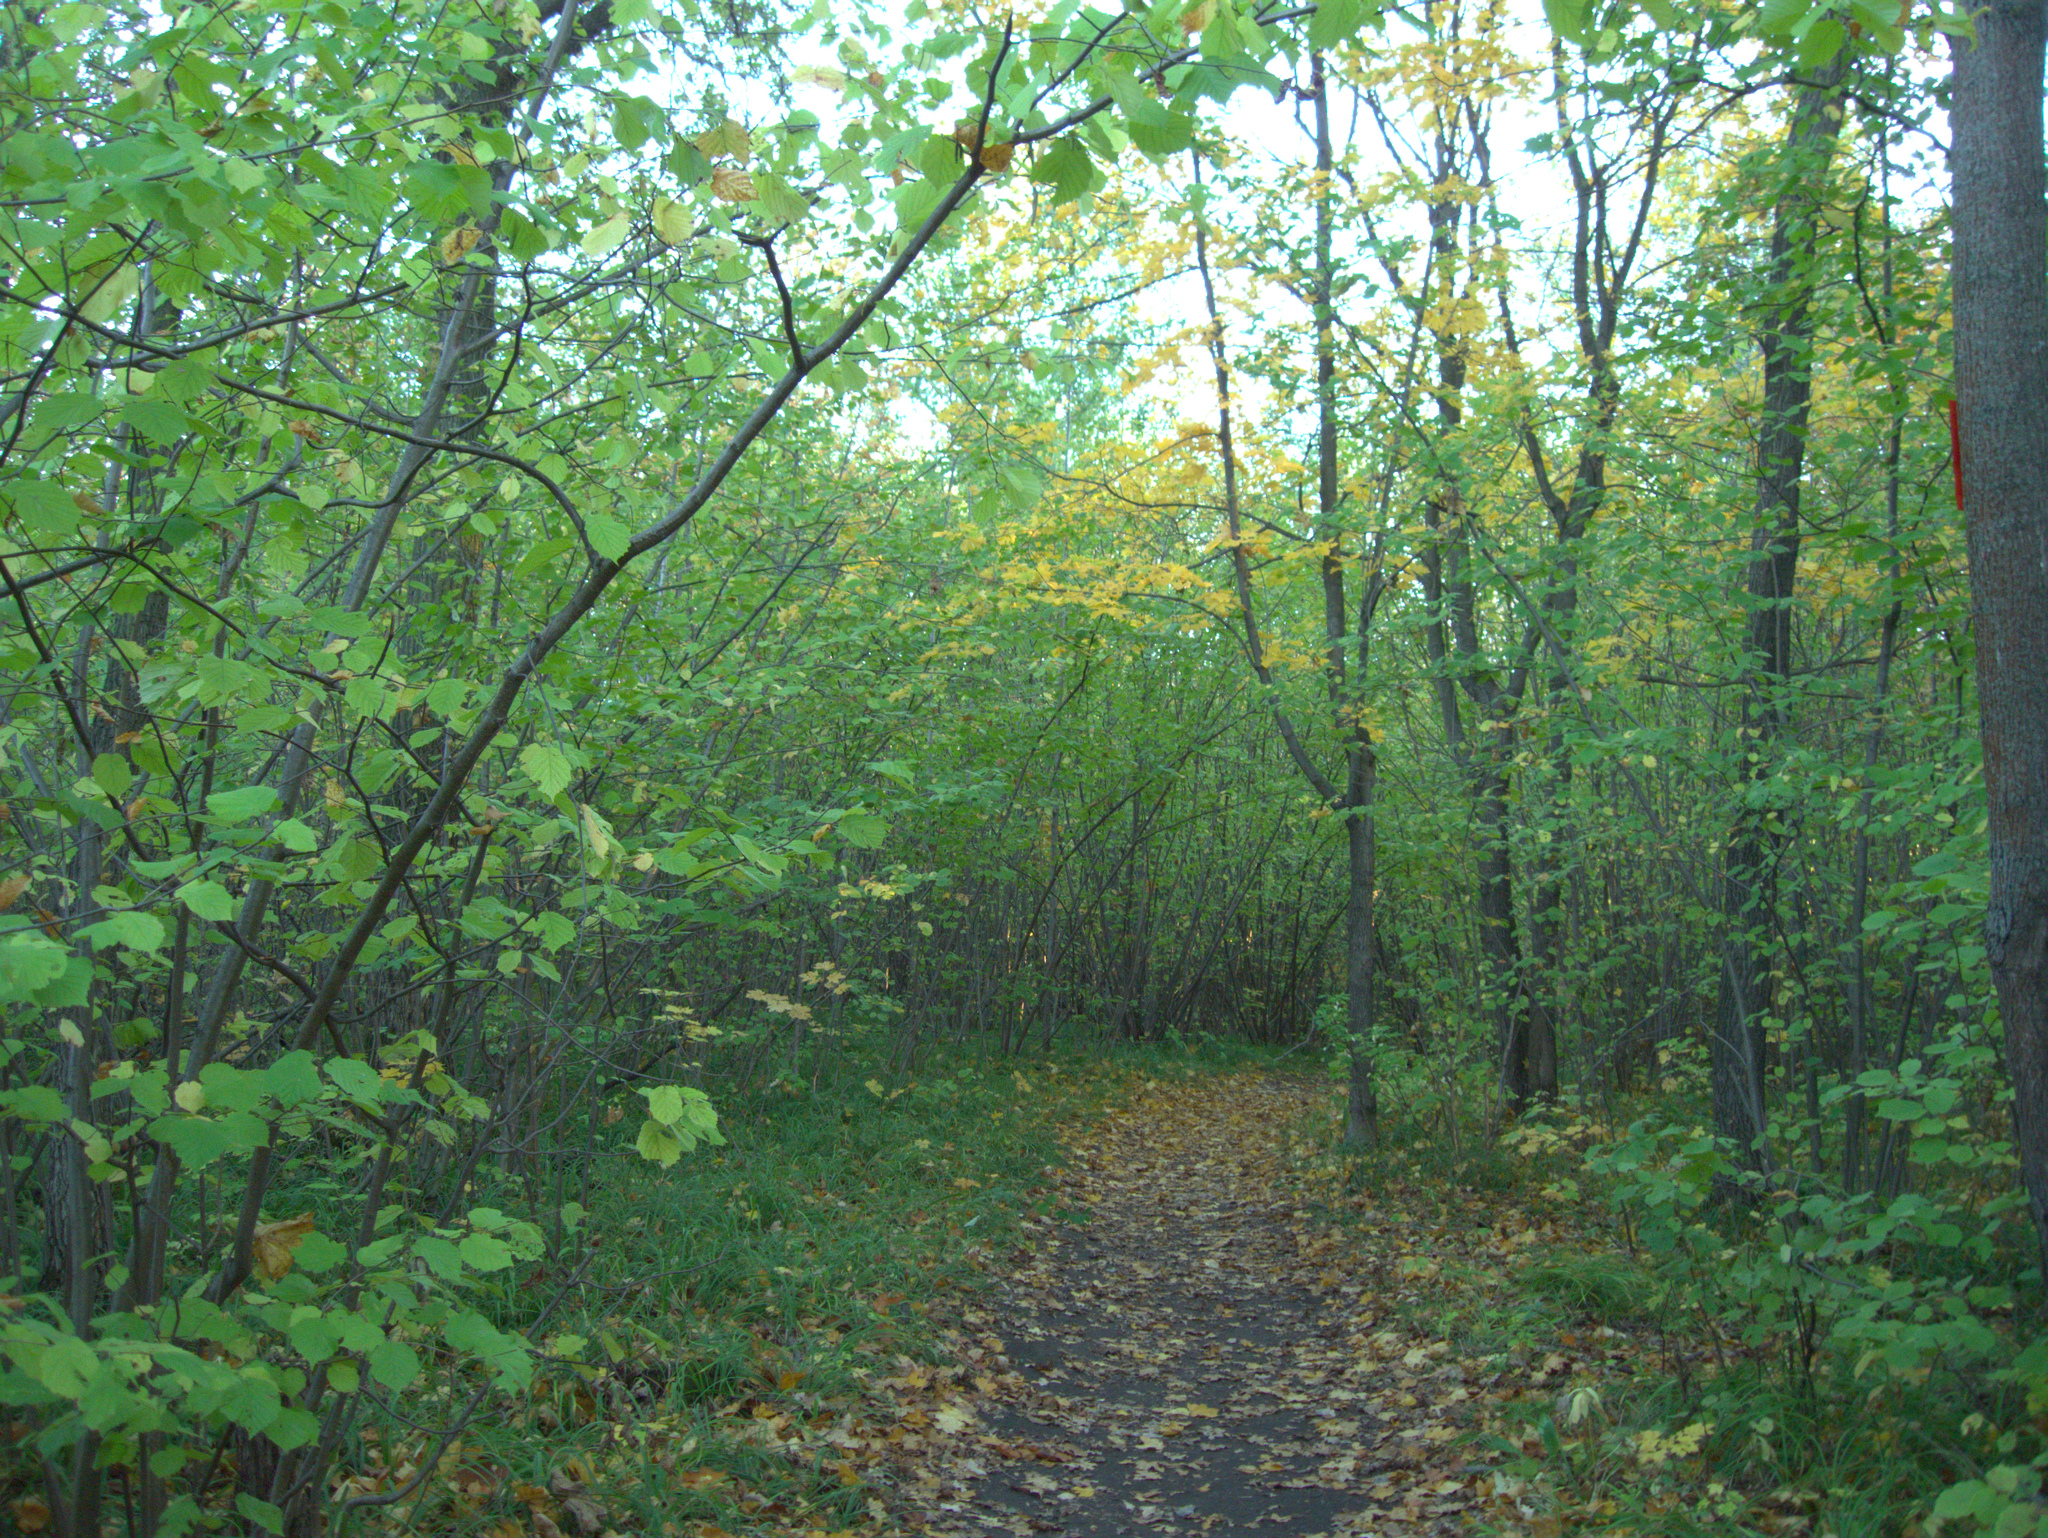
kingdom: Plantae
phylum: Tracheophyta
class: Magnoliopsida
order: Fagales
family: Betulaceae
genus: Corylus
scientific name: Corylus avellana
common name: European hazel
